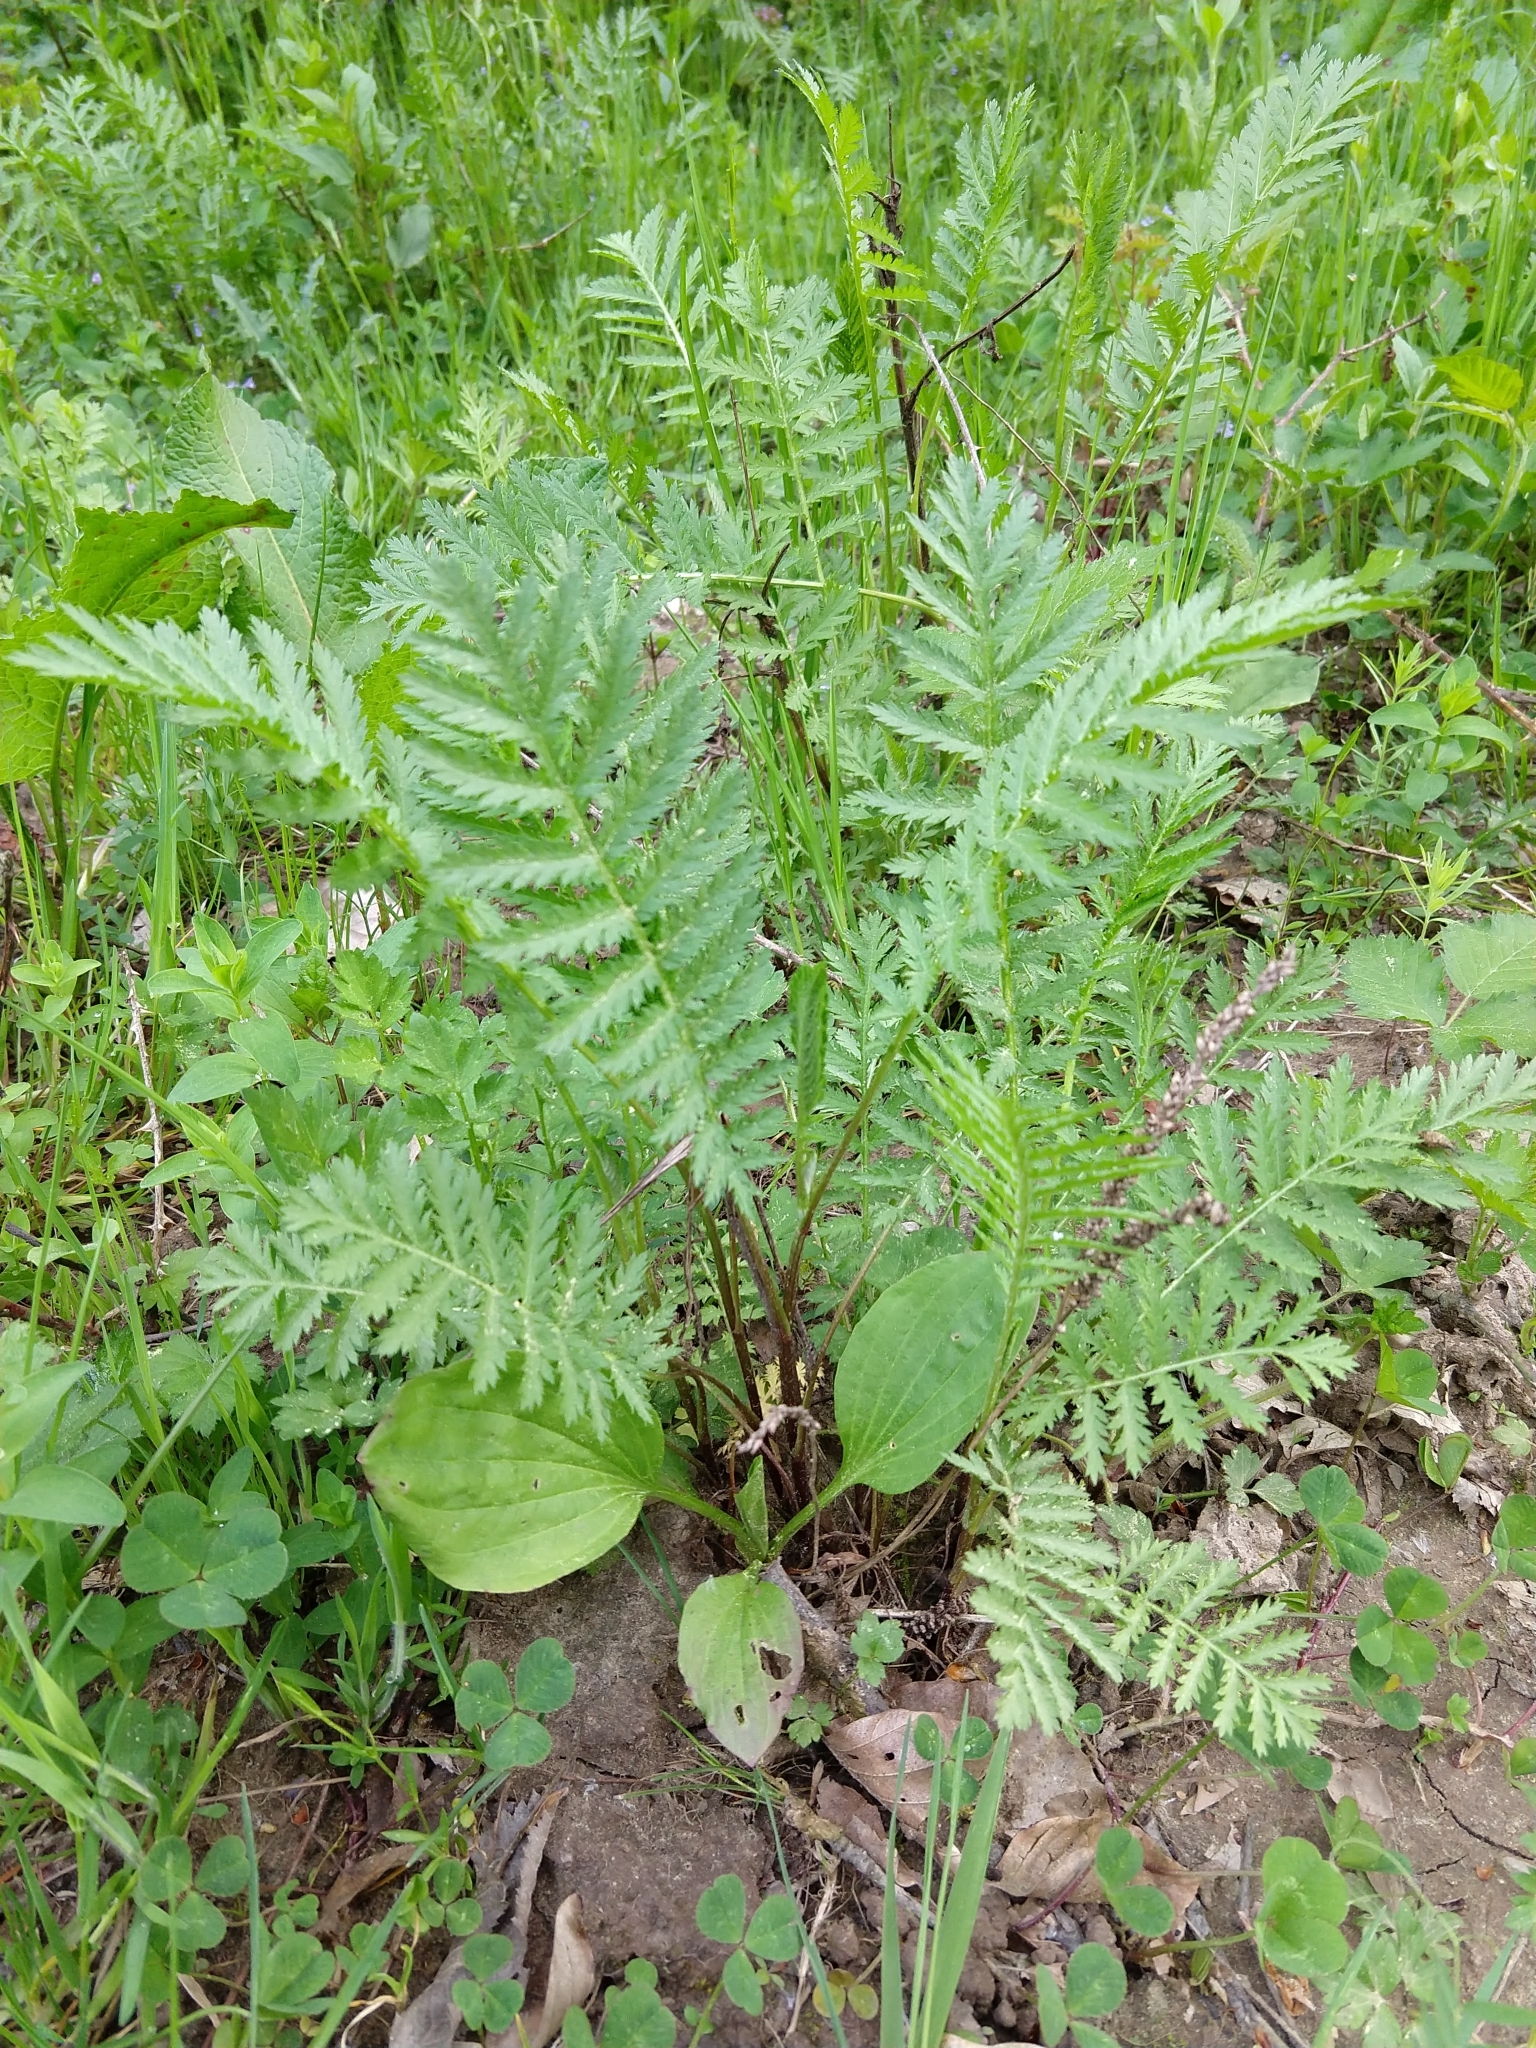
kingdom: Plantae
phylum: Tracheophyta
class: Magnoliopsida
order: Asterales
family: Asteraceae
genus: Tanacetum
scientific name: Tanacetum vulgare
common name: Common tansy
